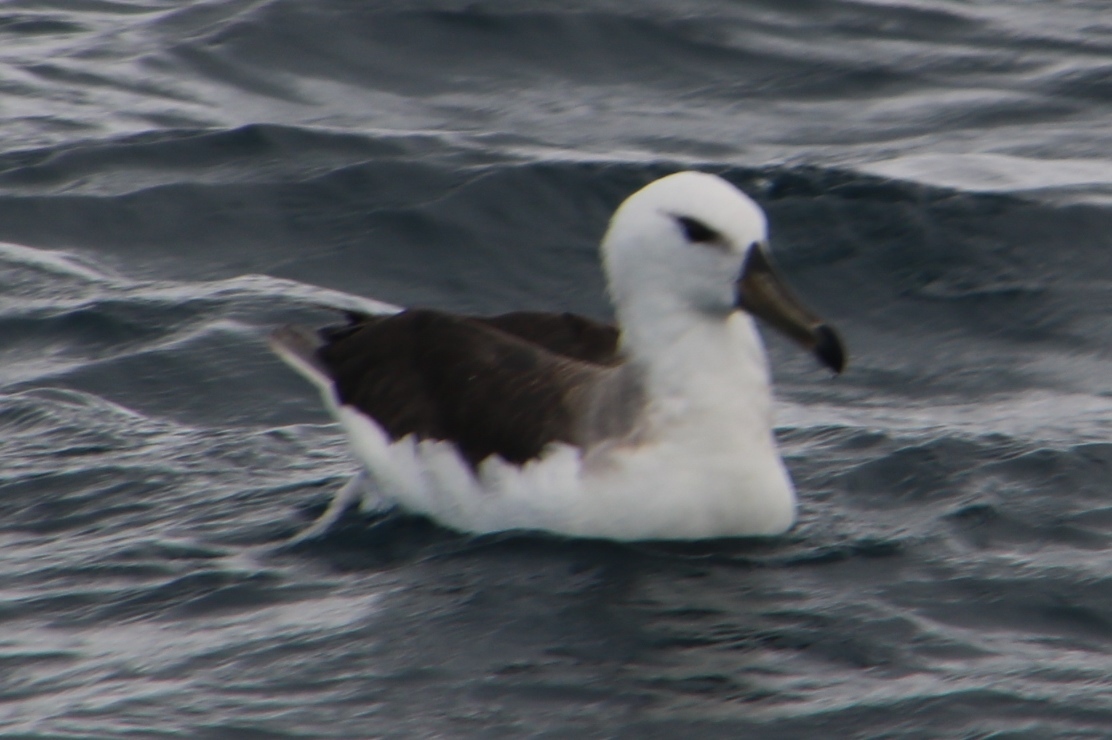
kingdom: Animalia
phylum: Chordata
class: Aves
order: Procellariiformes
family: Diomedeidae
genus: Thalassarche
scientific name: Thalassarche melanophris
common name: Black-browed albatross
